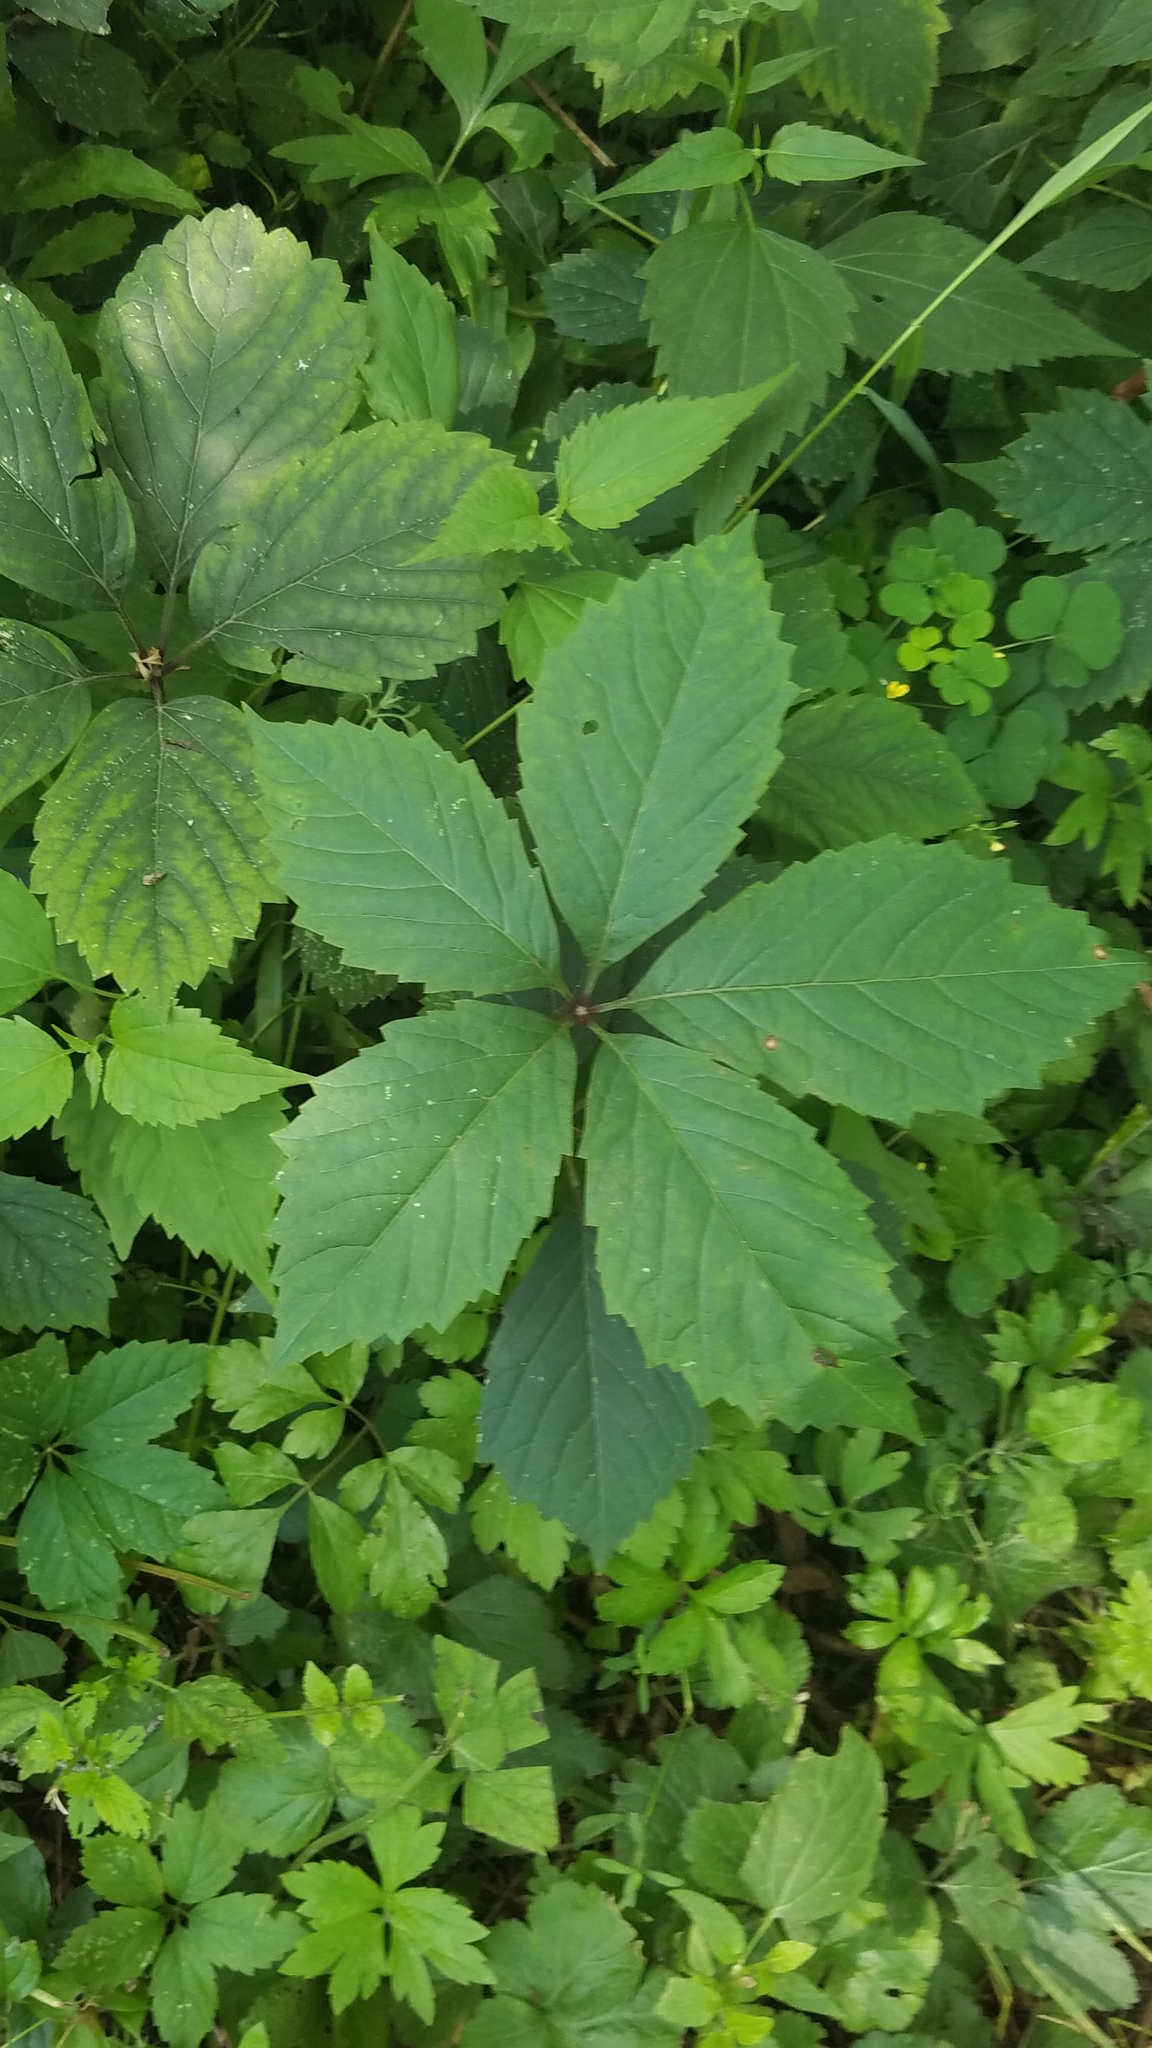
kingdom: Plantae
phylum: Tracheophyta
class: Magnoliopsida
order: Vitales
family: Vitaceae
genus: Parthenocissus
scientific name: Parthenocissus inserta
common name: False virginia-creeper
